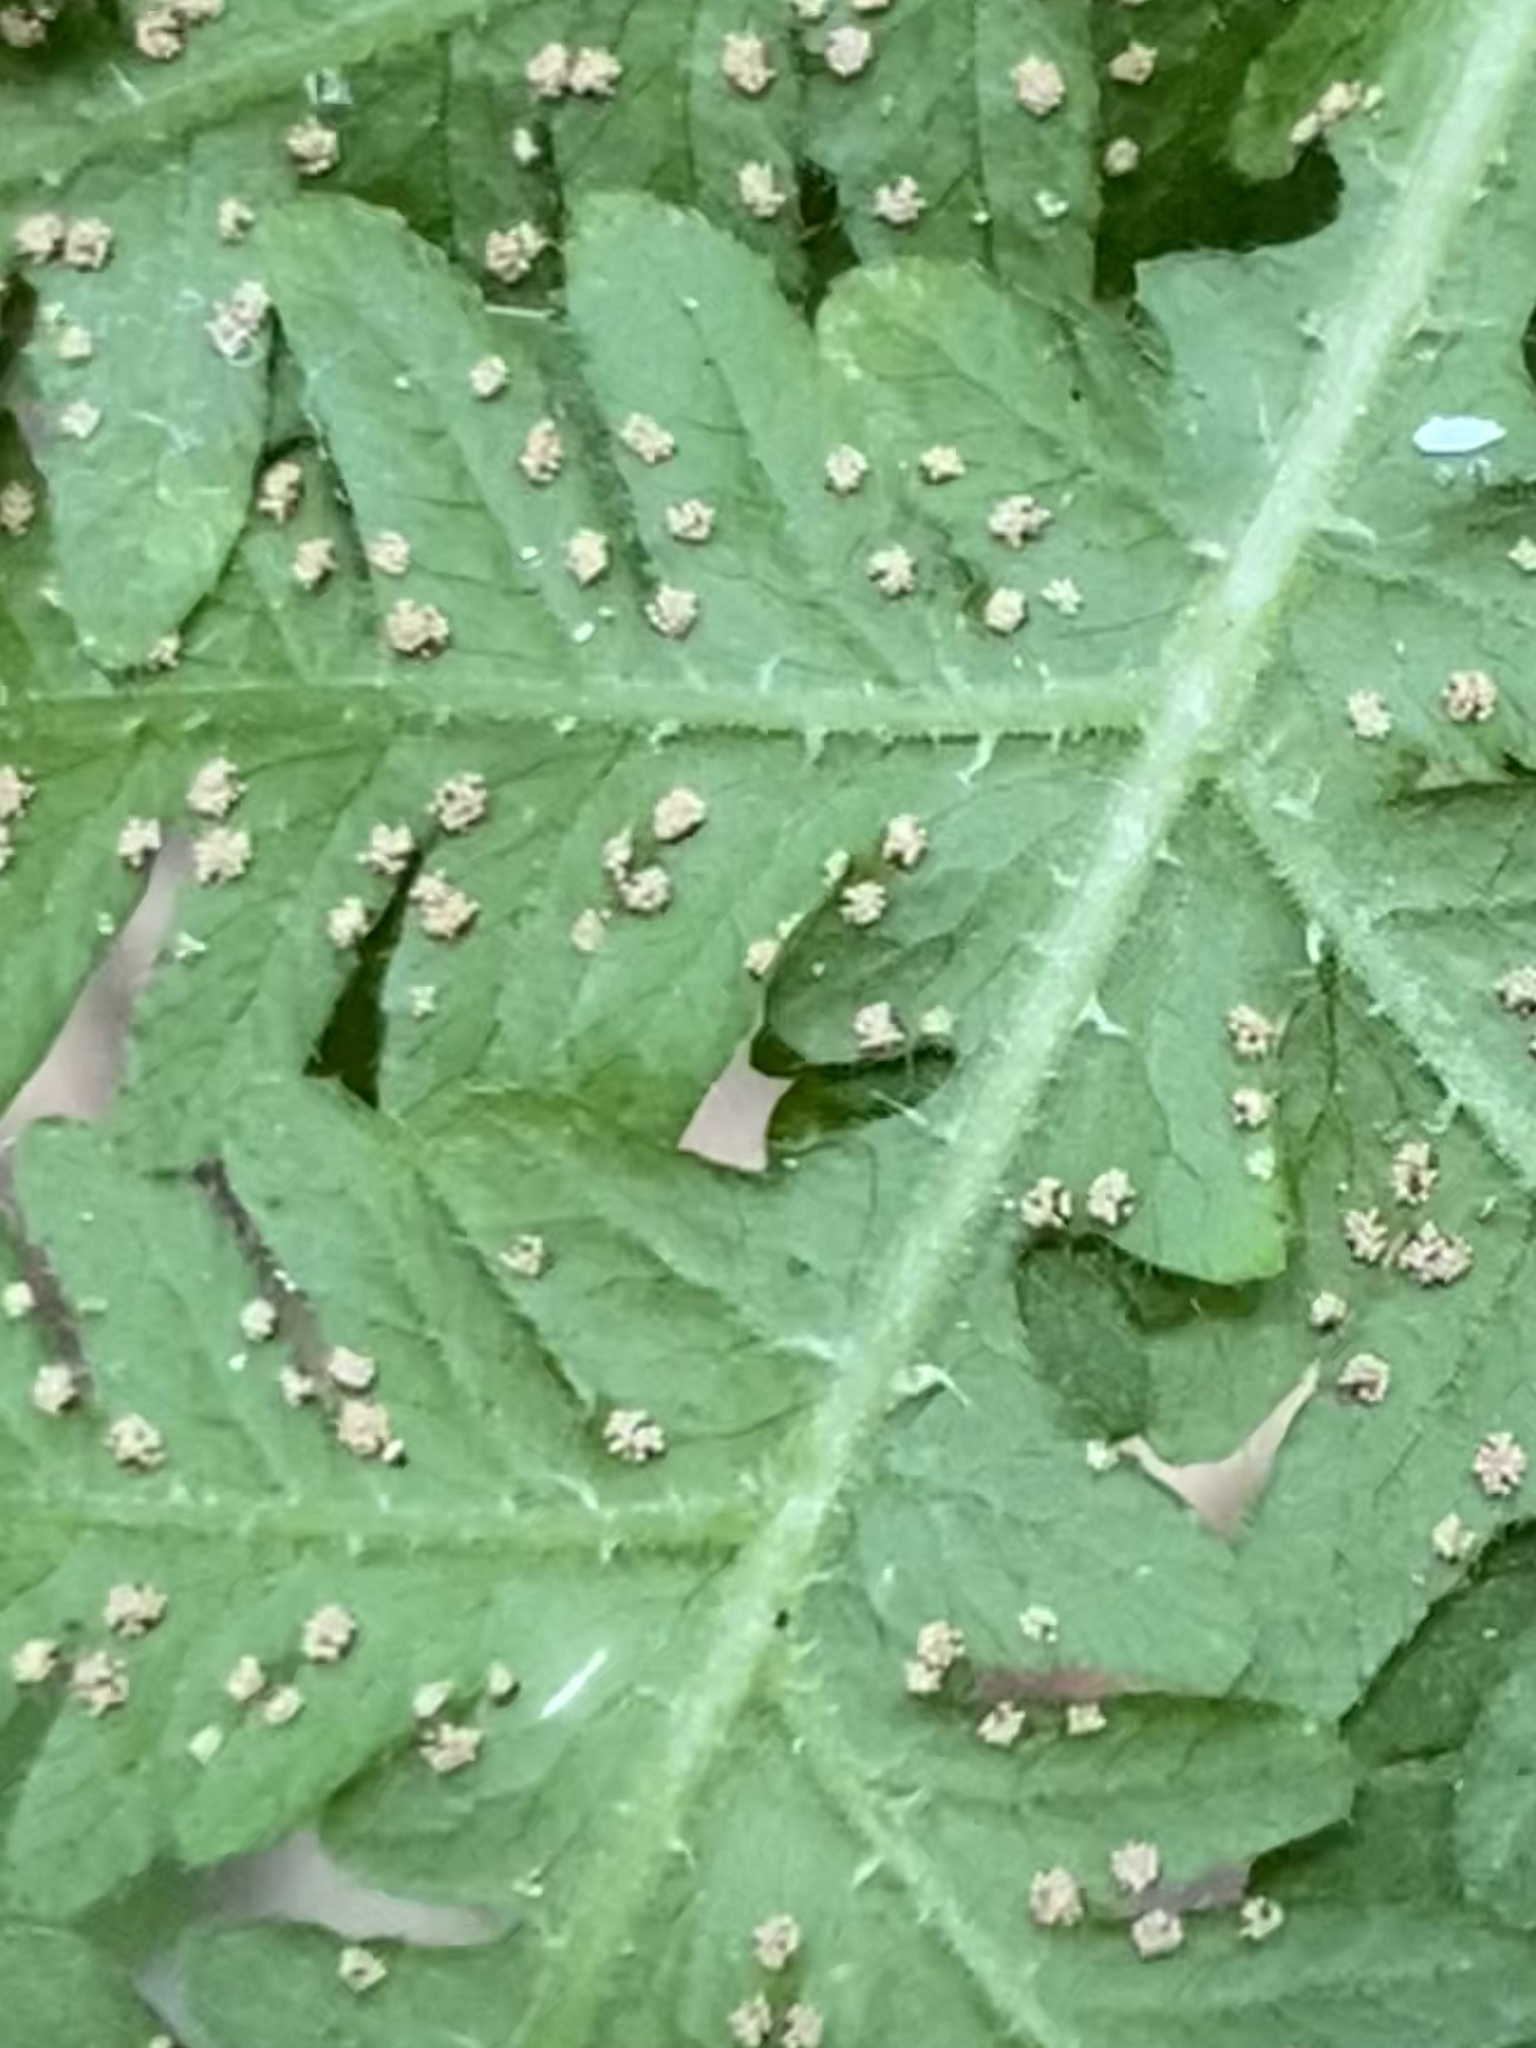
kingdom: Plantae
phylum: Tracheophyta
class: Polypodiopsida
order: Polypodiales
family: Thelypteridaceae
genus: Phegopteris
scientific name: Phegopteris hexagonoptera
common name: Broad beech fern
